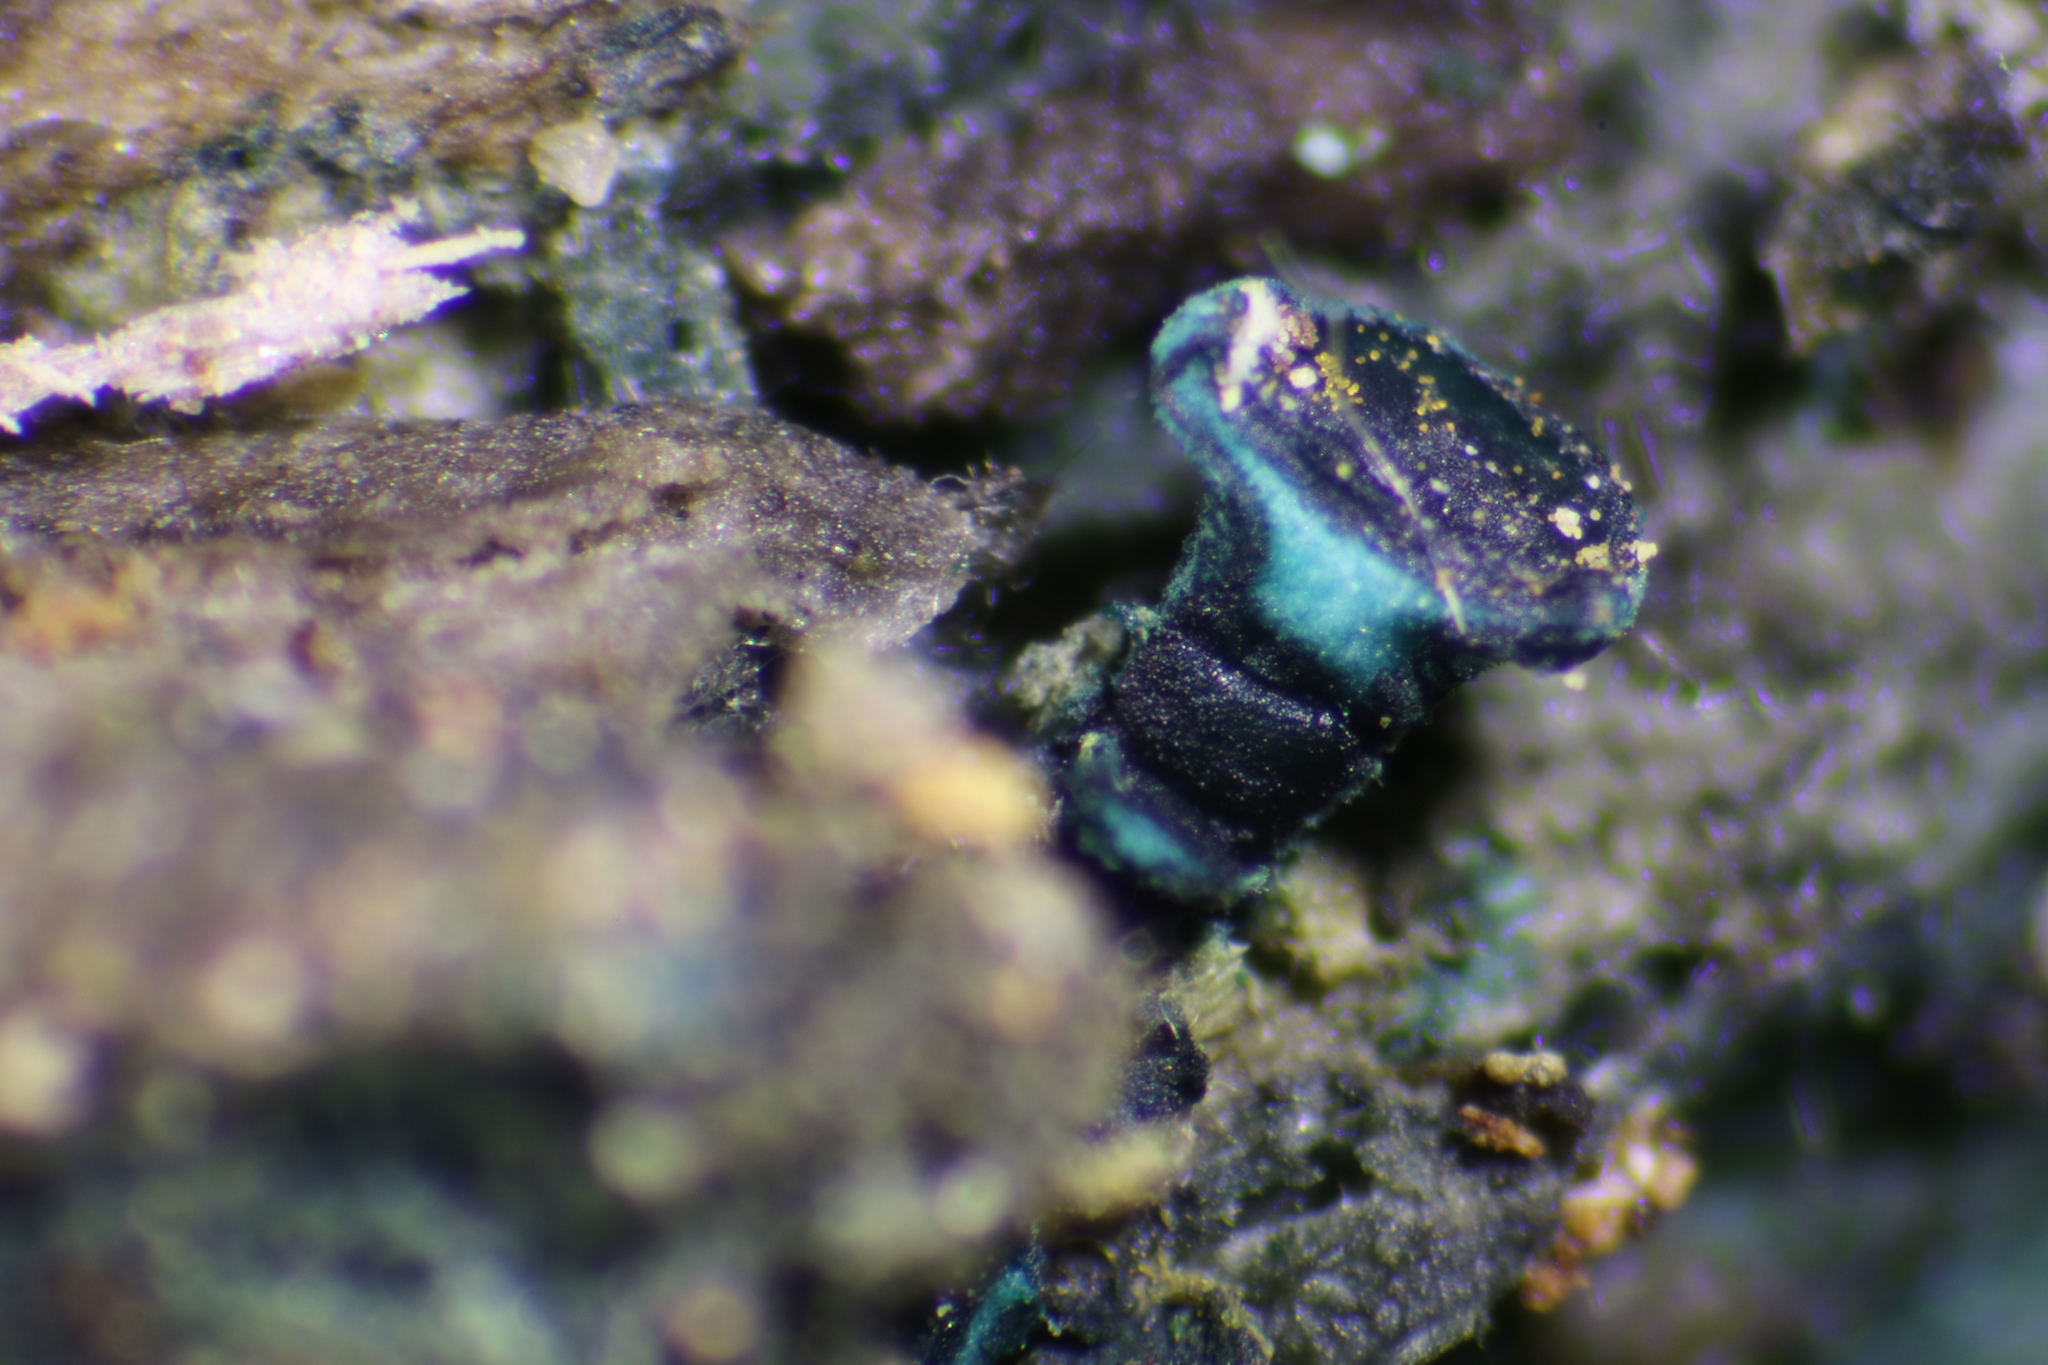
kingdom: Fungi
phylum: Ascomycota
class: Leotiomycetes
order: Helotiales
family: Chlorociboriaceae
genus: Chlorociboria
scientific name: Chlorociboria aeruginosa
